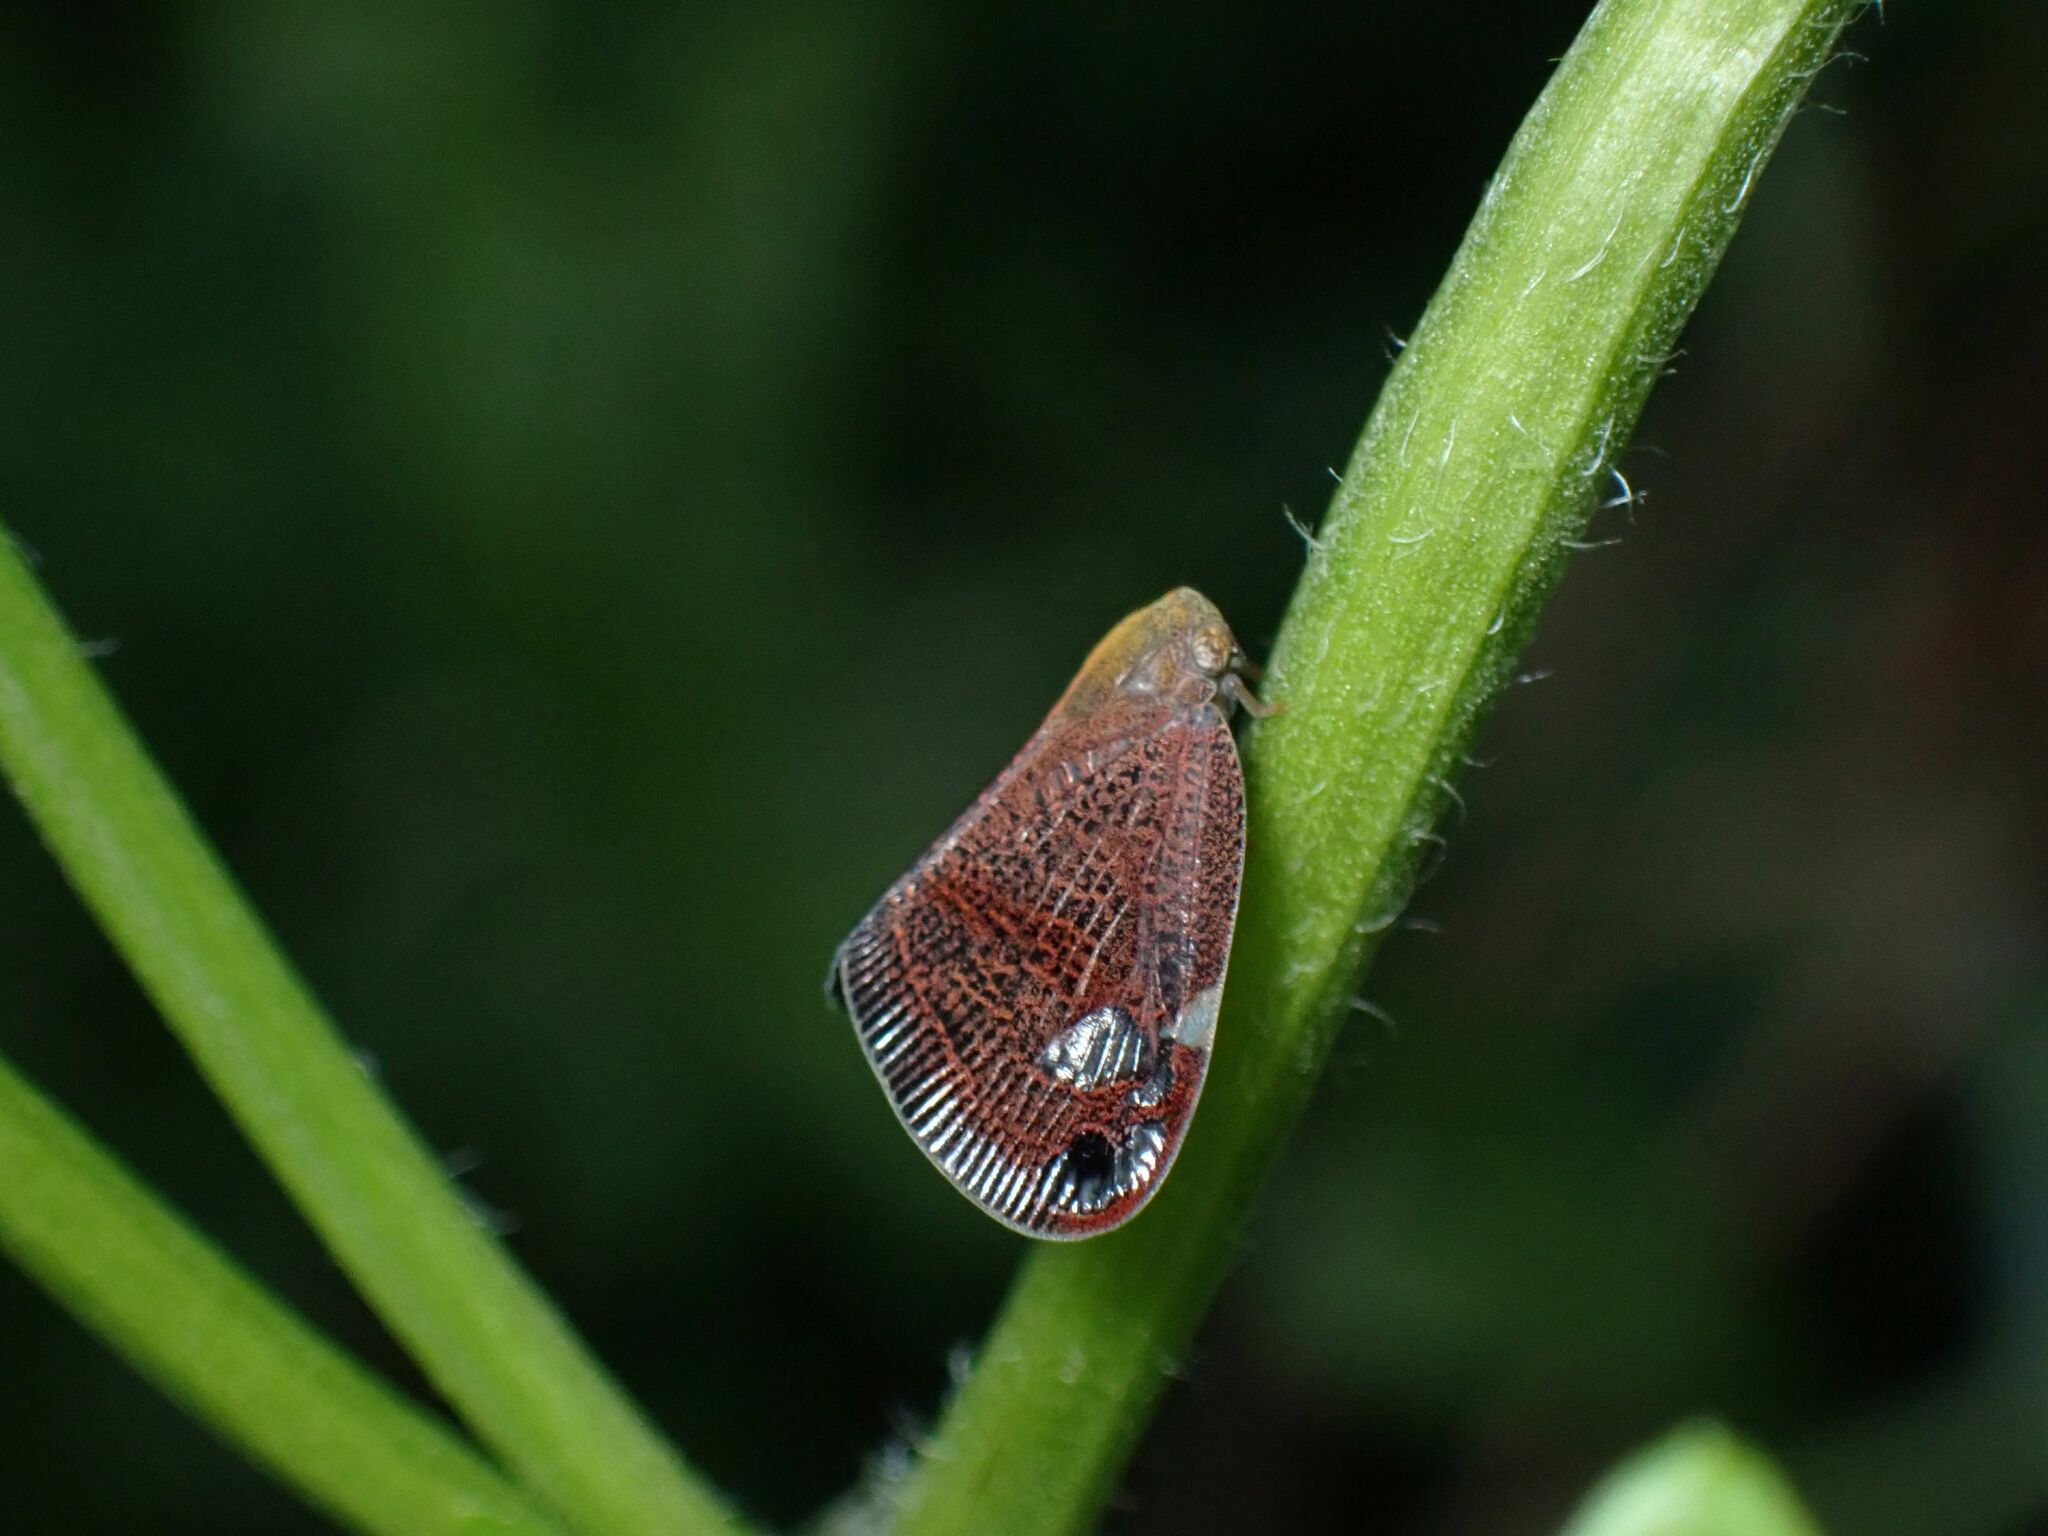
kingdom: Animalia
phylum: Arthropoda
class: Insecta
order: Hemiptera
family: Ricaniidae
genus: Parapiromis
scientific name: Parapiromis translucida
